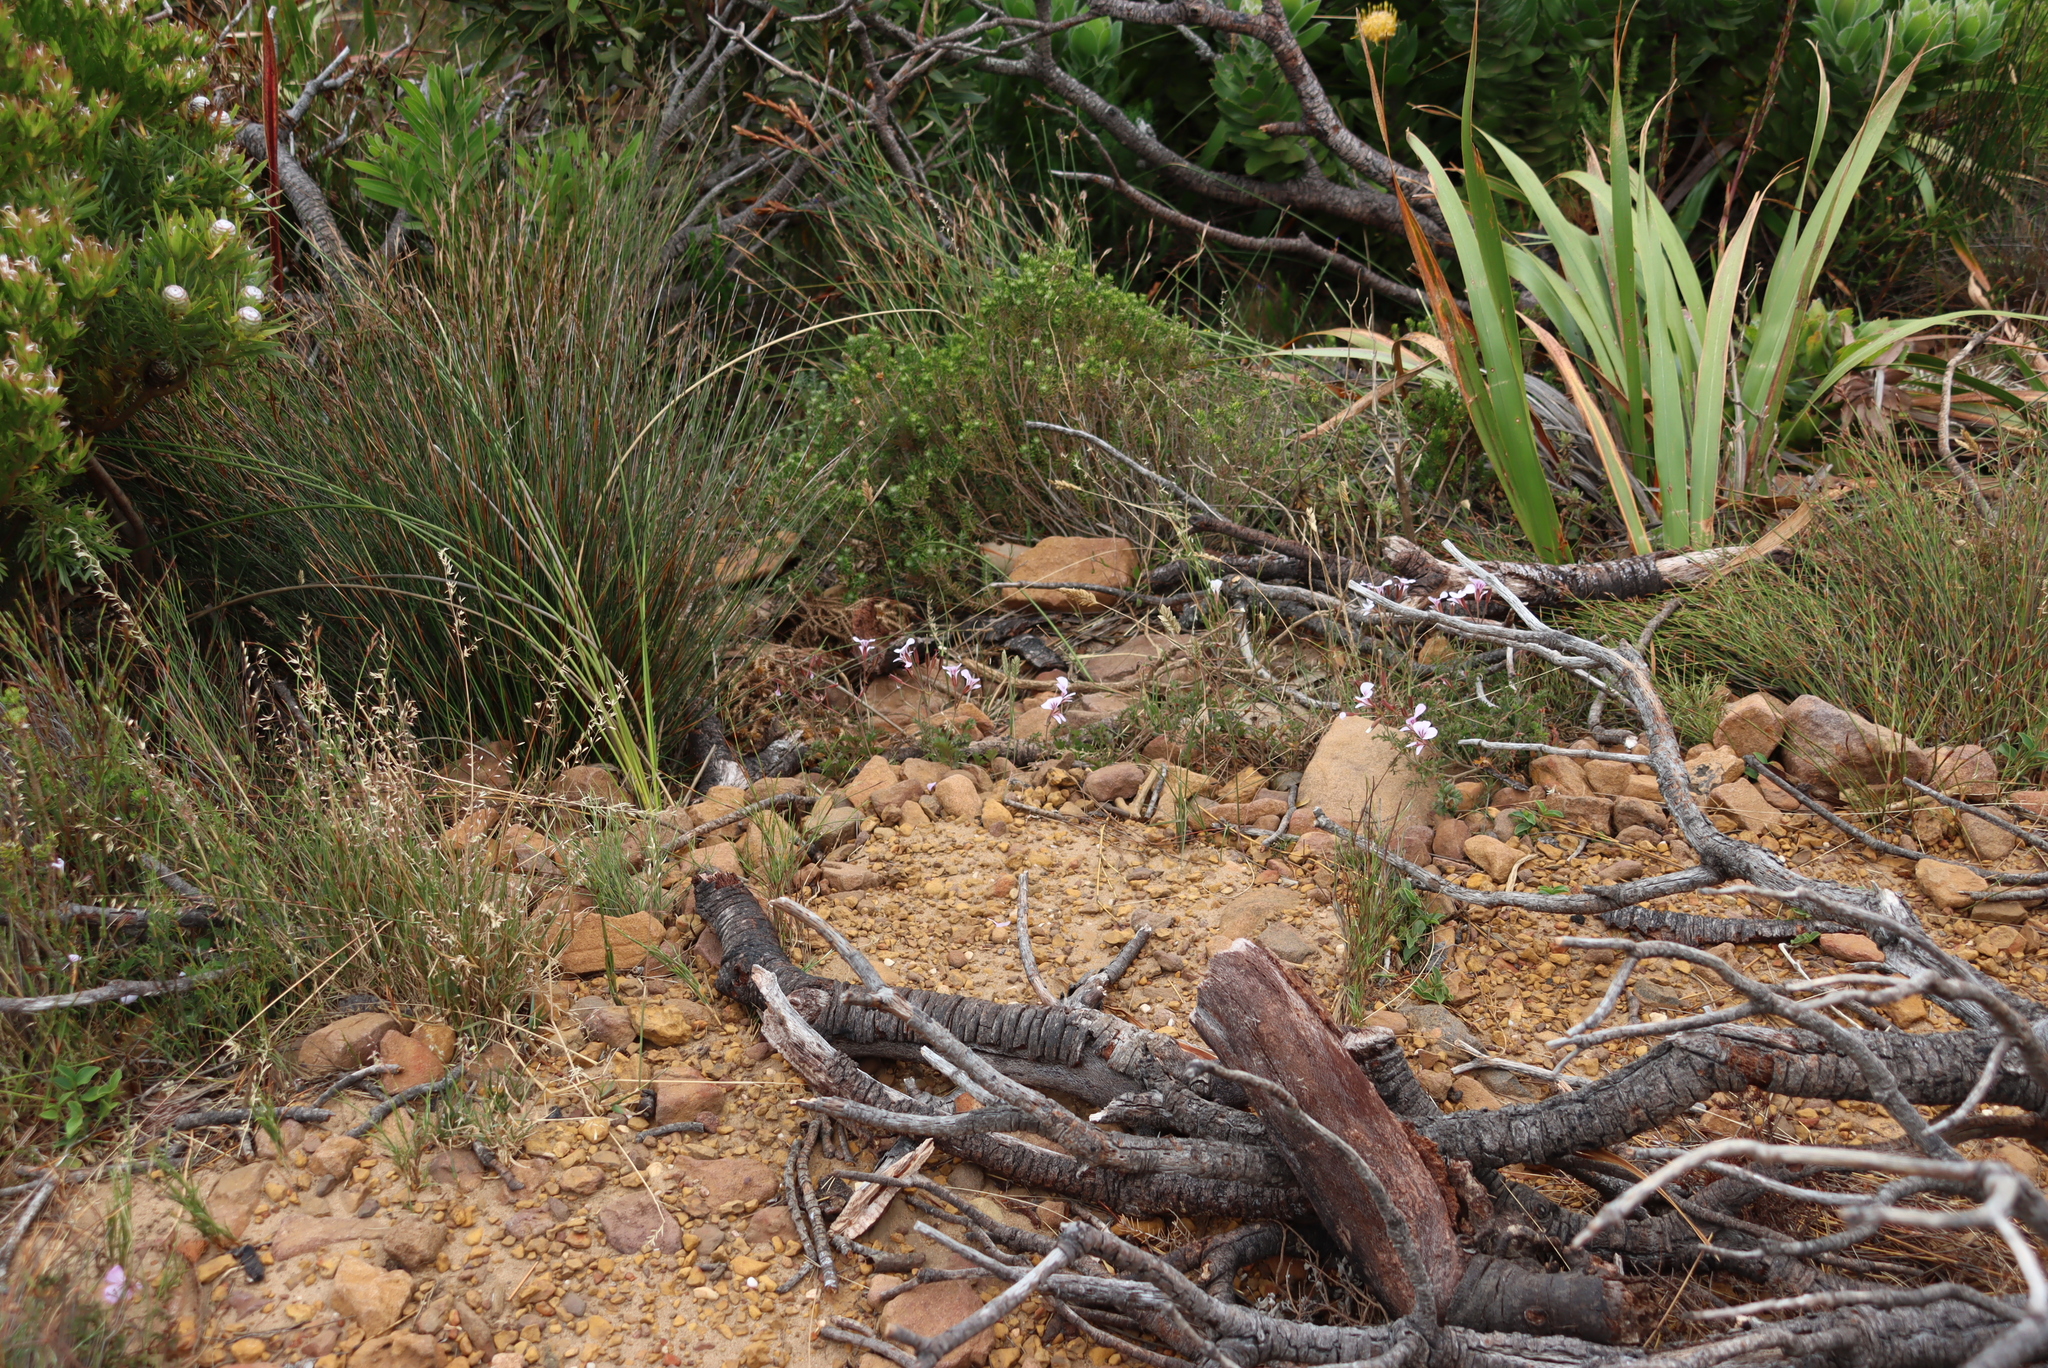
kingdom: Plantae
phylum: Tracheophyta
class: Magnoliopsida
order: Geraniales
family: Geraniaceae
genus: Pelargonium
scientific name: Pelargonium longicaule
